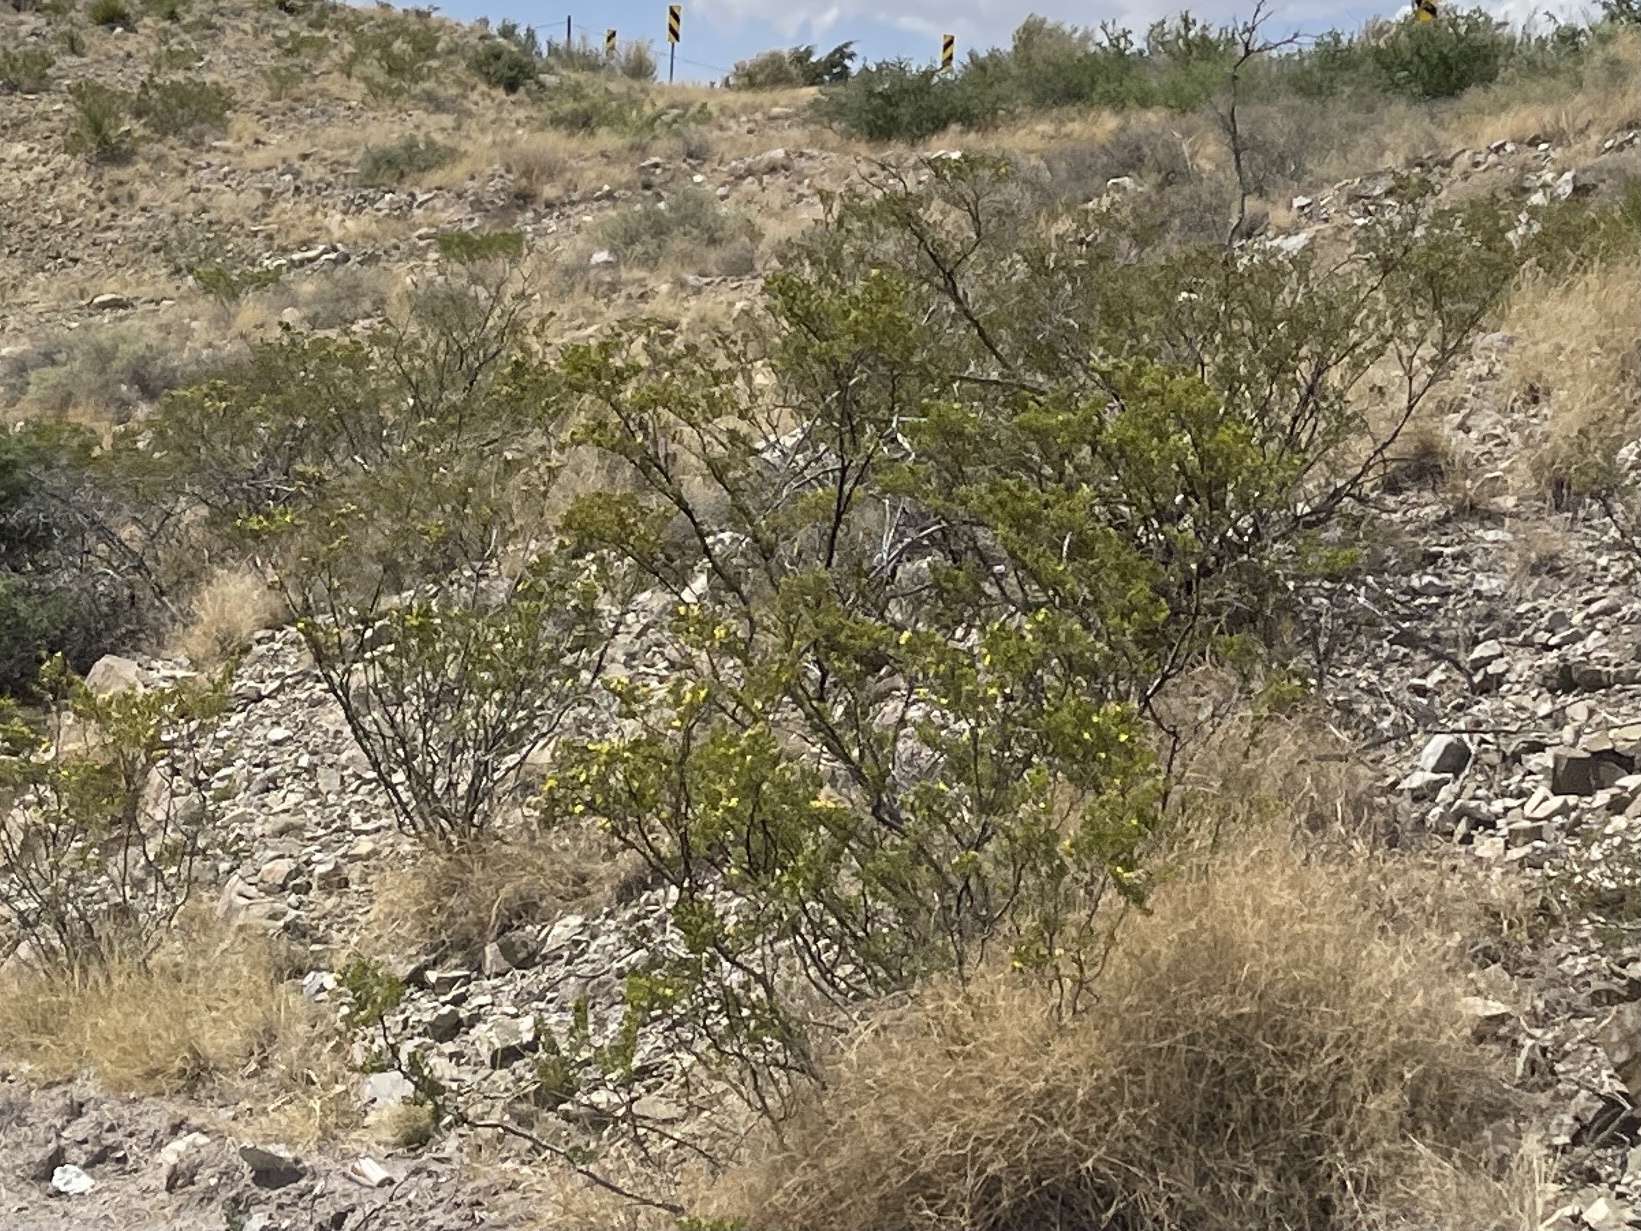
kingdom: Plantae
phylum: Tracheophyta
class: Magnoliopsida
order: Zygophyllales
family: Zygophyllaceae
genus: Larrea
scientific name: Larrea tridentata
